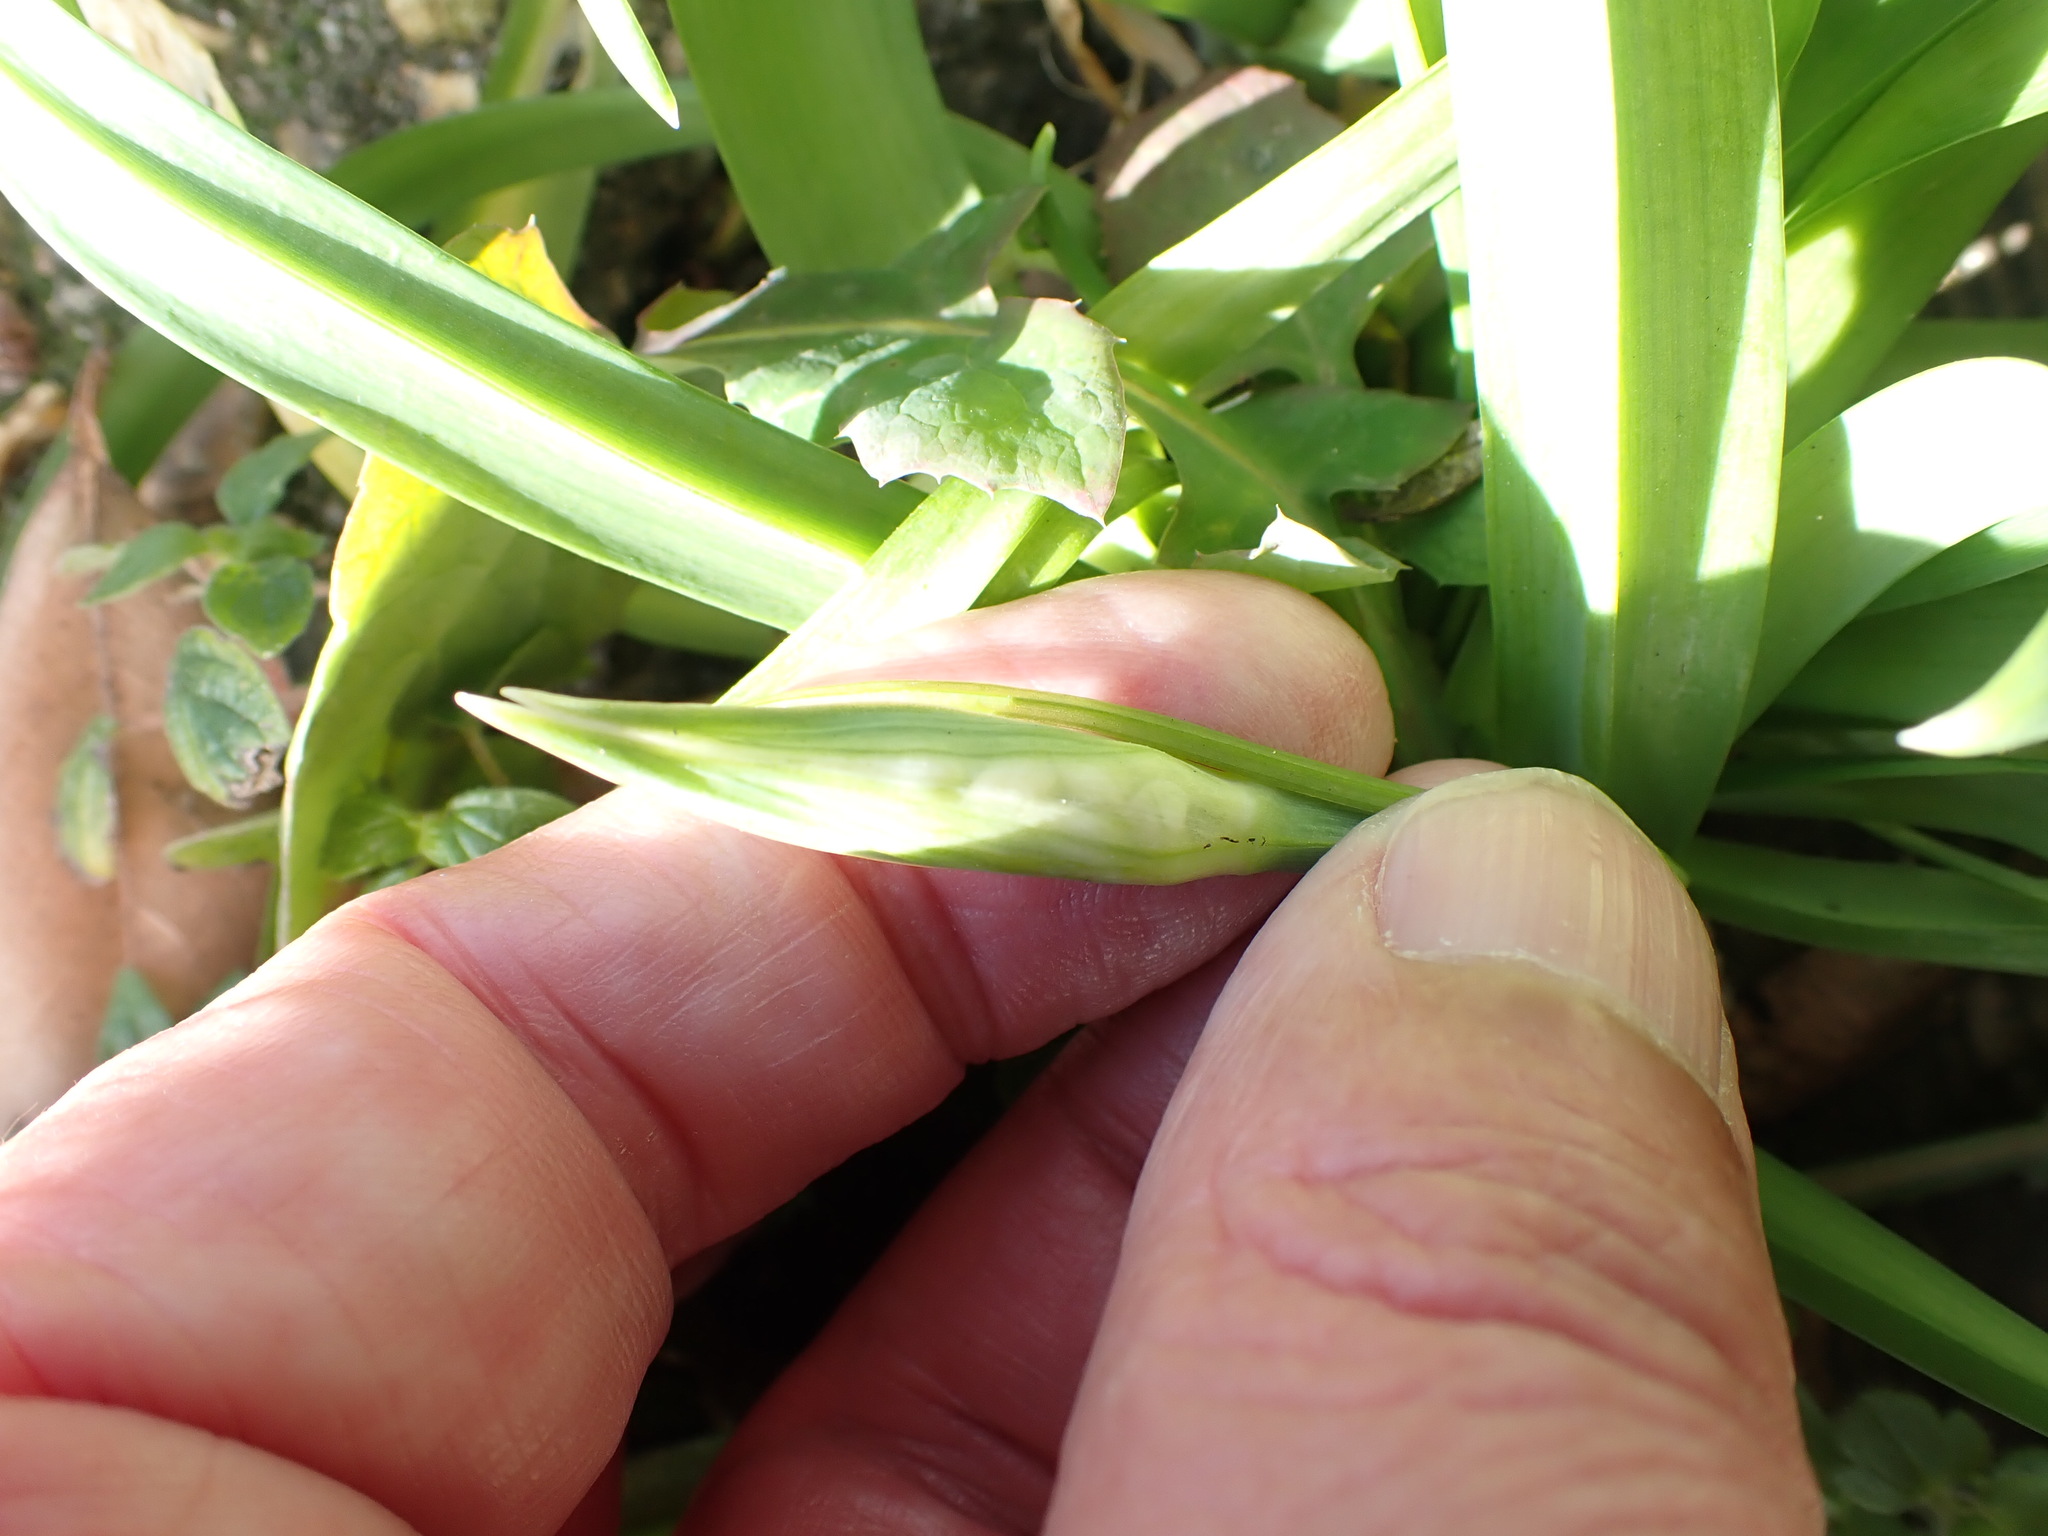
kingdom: Plantae
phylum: Tracheophyta
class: Liliopsida
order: Asparagales
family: Amaryllidaceae
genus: Allium
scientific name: Allium triquetrum
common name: Three-cornered garlic
